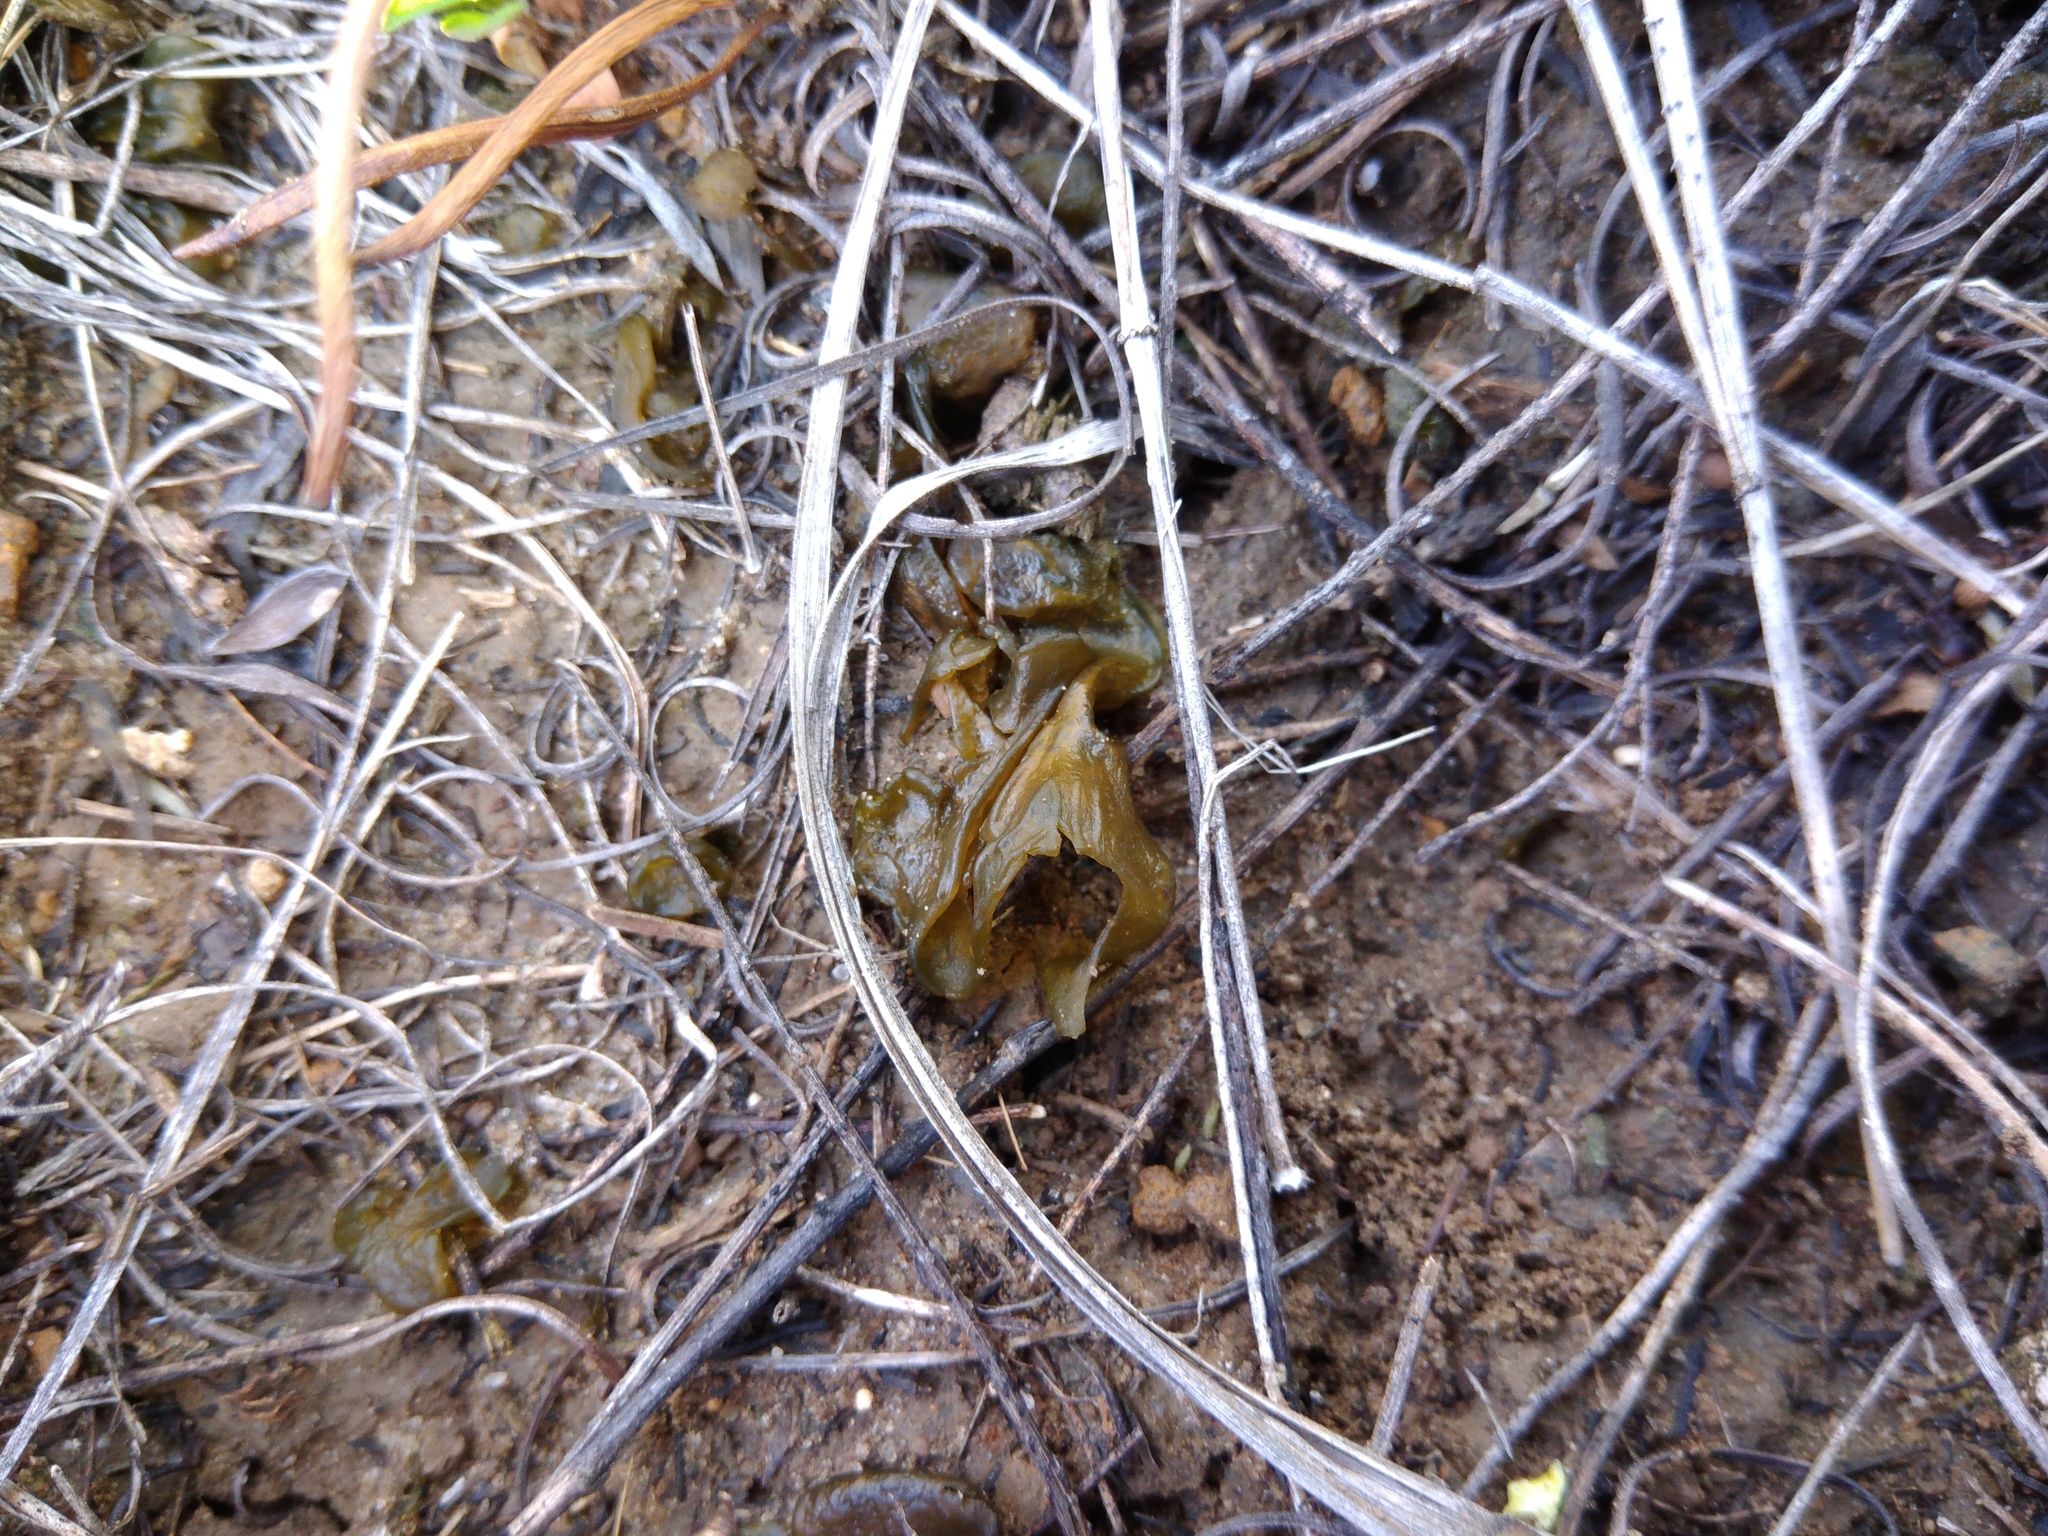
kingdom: Bacteria
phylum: Cyanobacteria
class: Cyanobacteriia
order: Cyanobacteriales
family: Nostocaceae
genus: Nostoc
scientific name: Nostoc commune
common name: Star jelly
